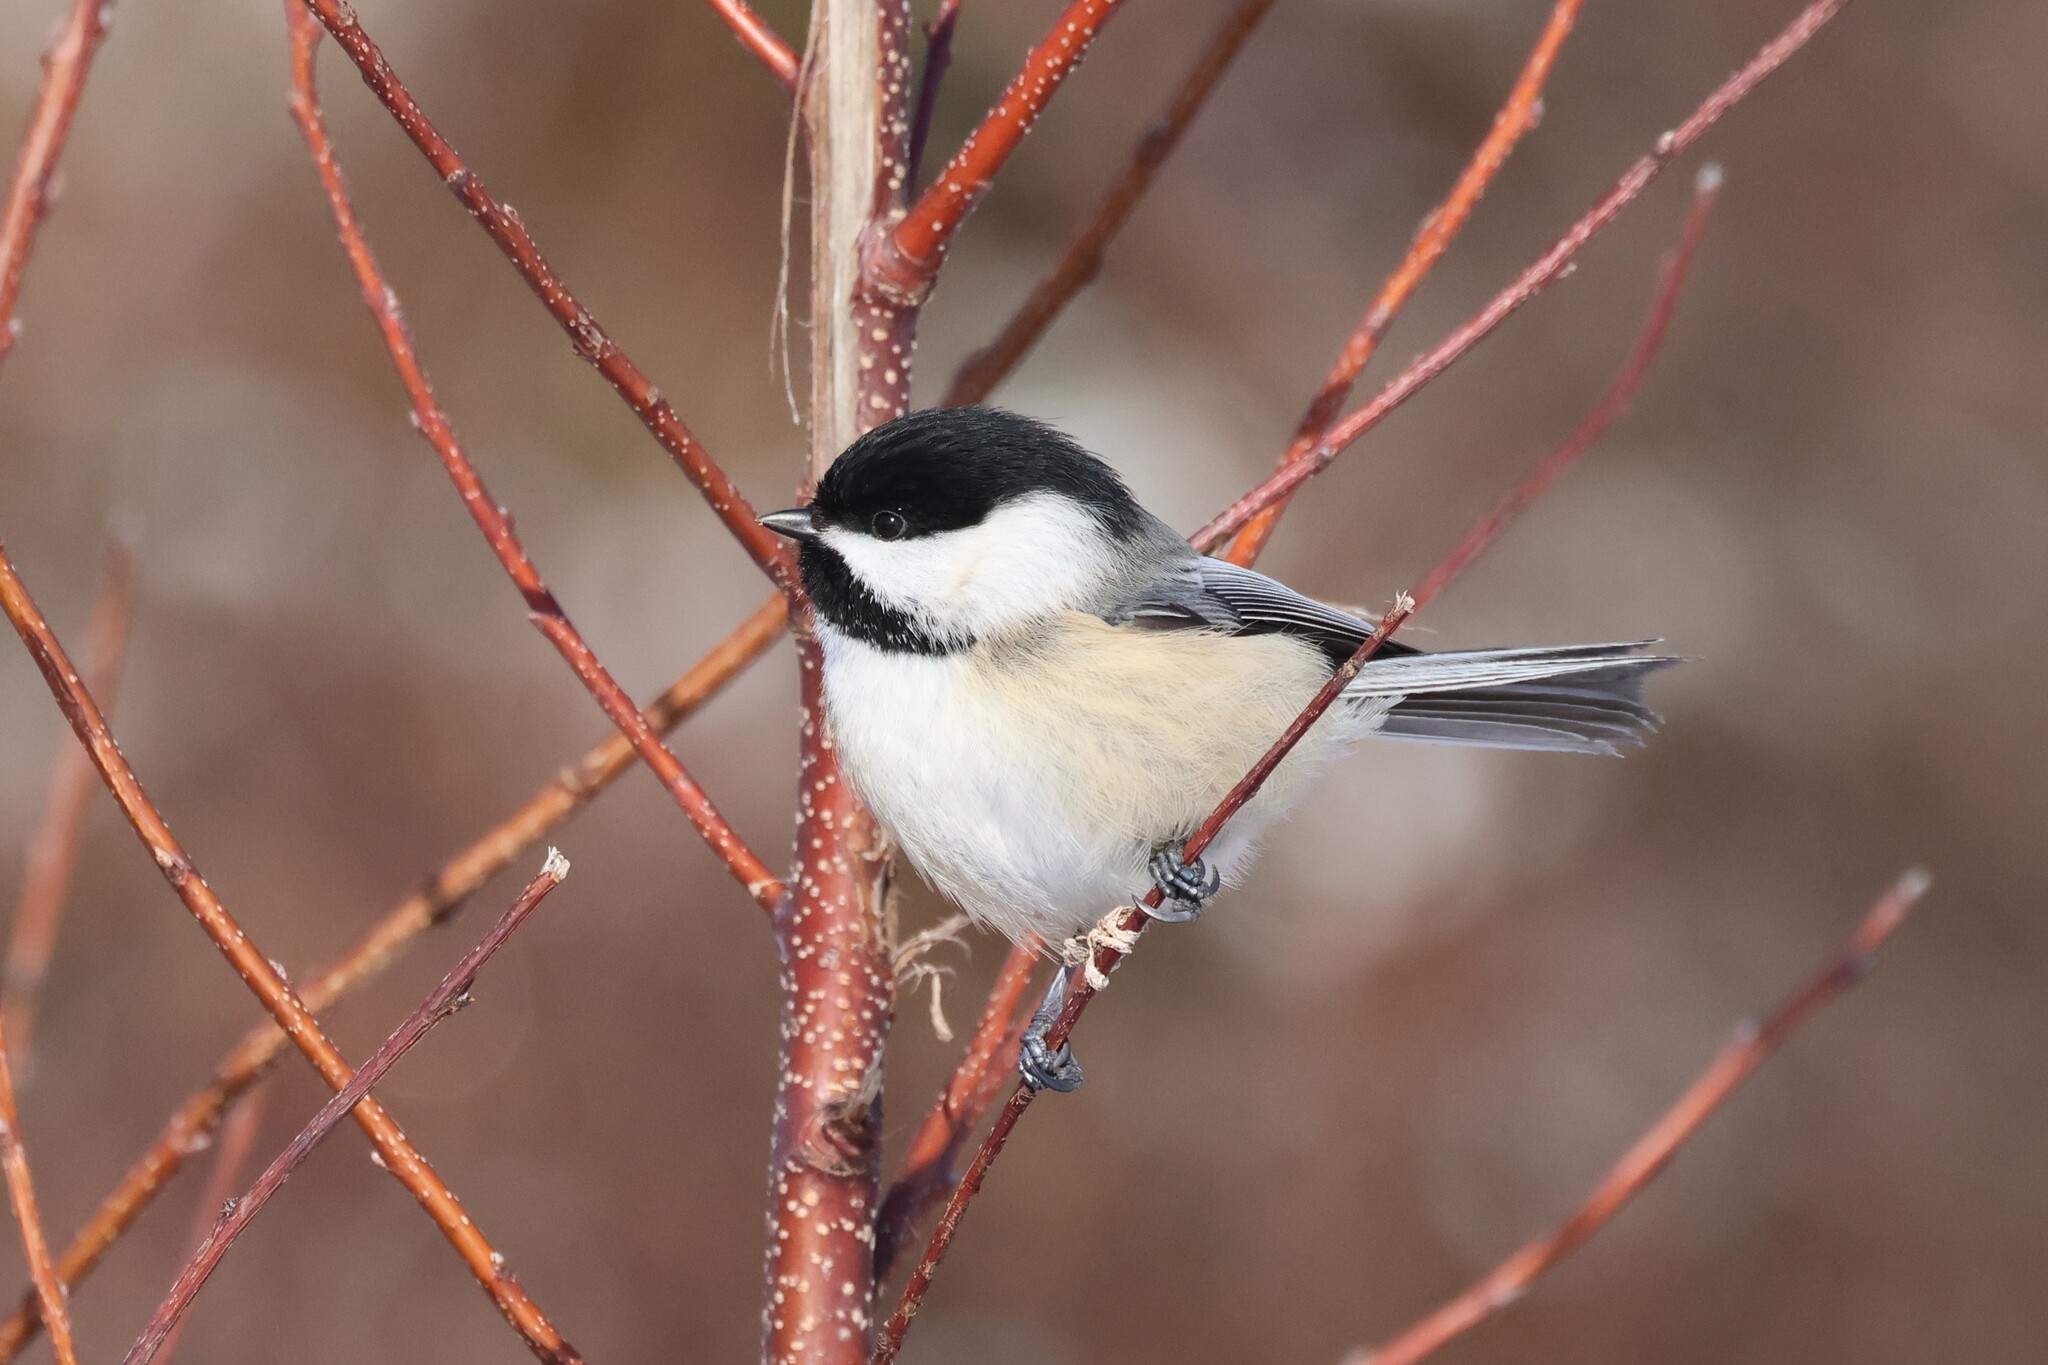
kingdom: Animalia
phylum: Chordata
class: Aves
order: Passeriformes
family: Paridae
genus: Poecile
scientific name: Poecile atricapillus
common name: Black-capped chickadee
